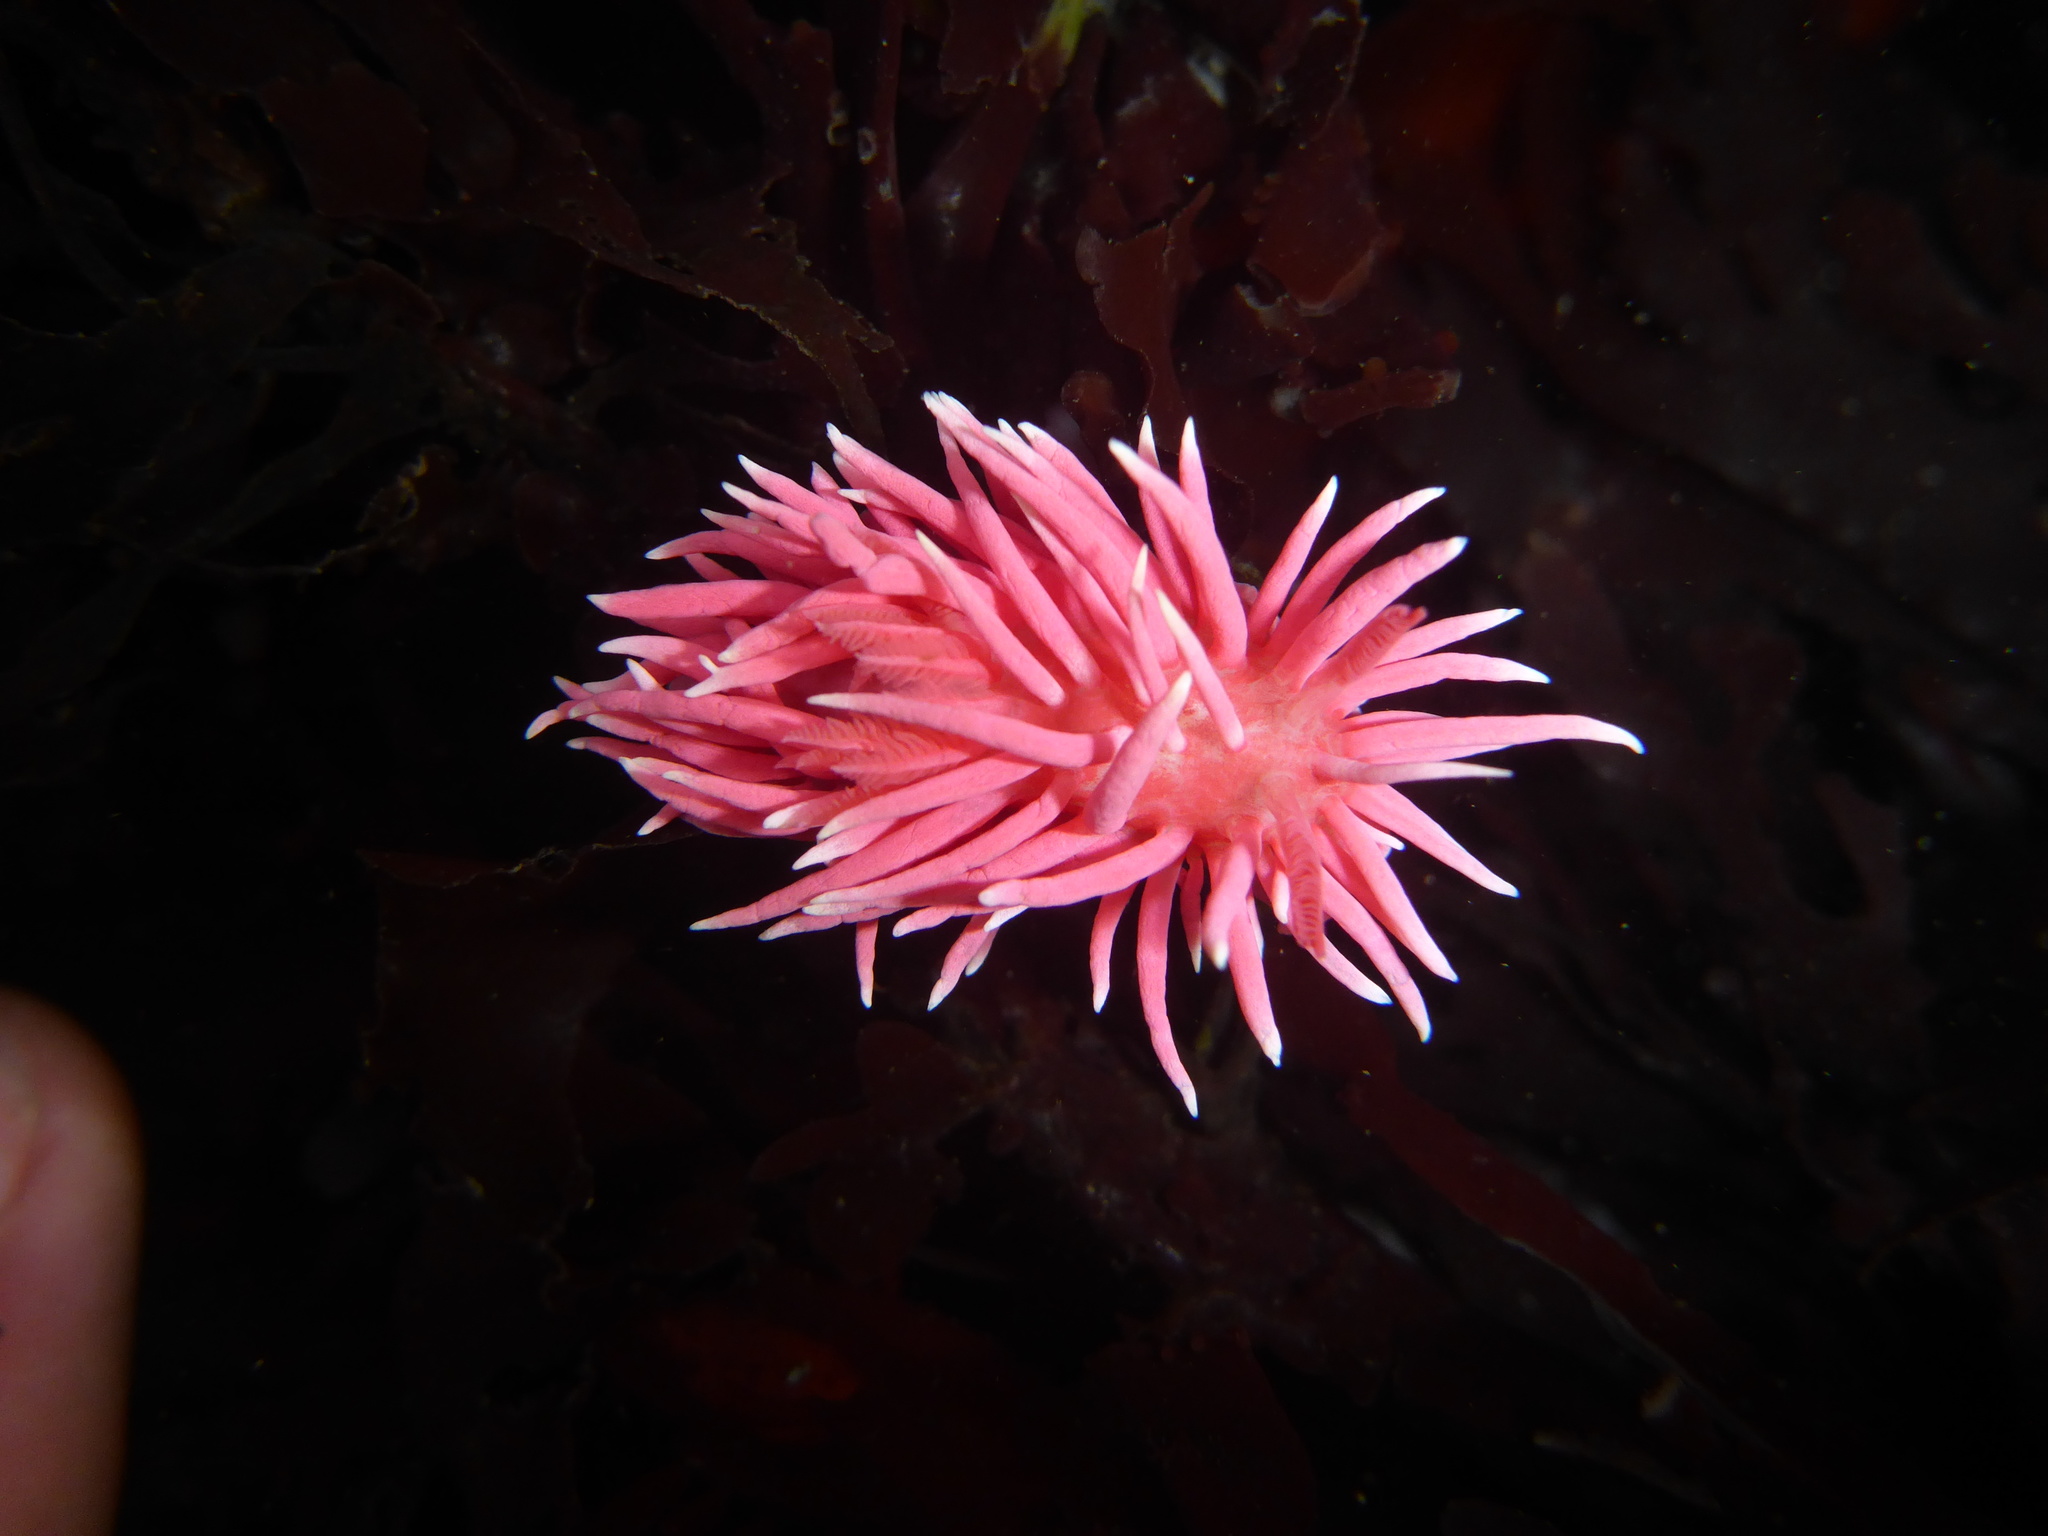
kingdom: Animalia
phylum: Mollusca
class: Gastropoda
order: Nudibranchia
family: Goniodorididae
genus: Okenia
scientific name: Okenia
